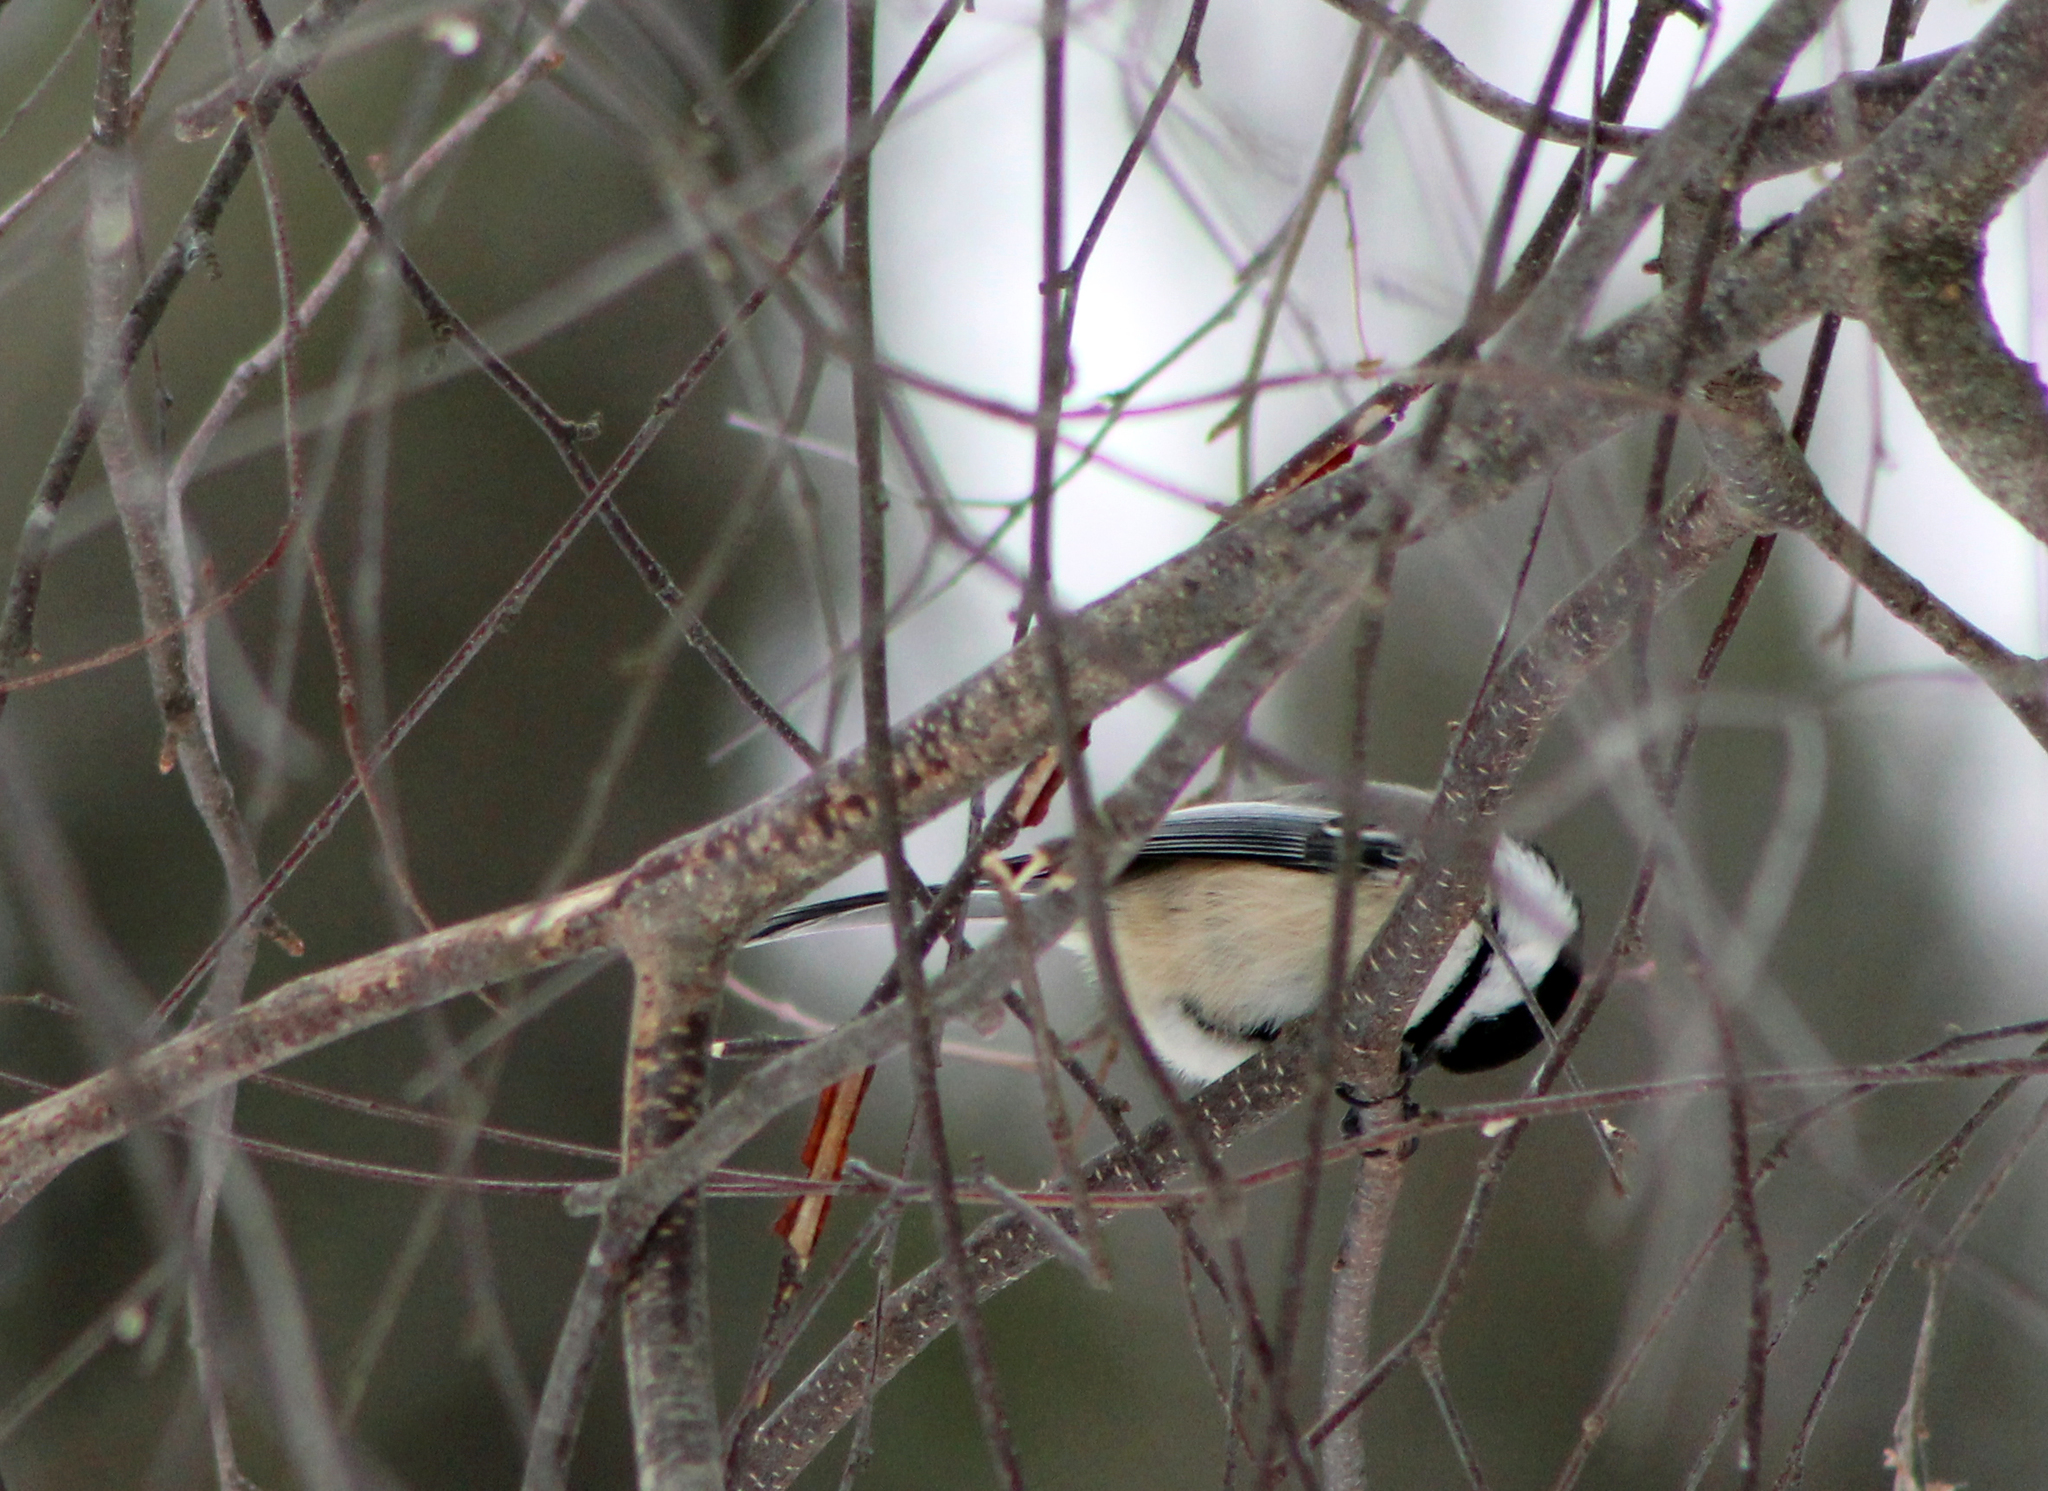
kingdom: Animalia
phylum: Chordata
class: Aves
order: Passeriformes
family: Paridae
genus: Poecile
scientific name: Poecile atricapillus
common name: Black-capped chickadee
